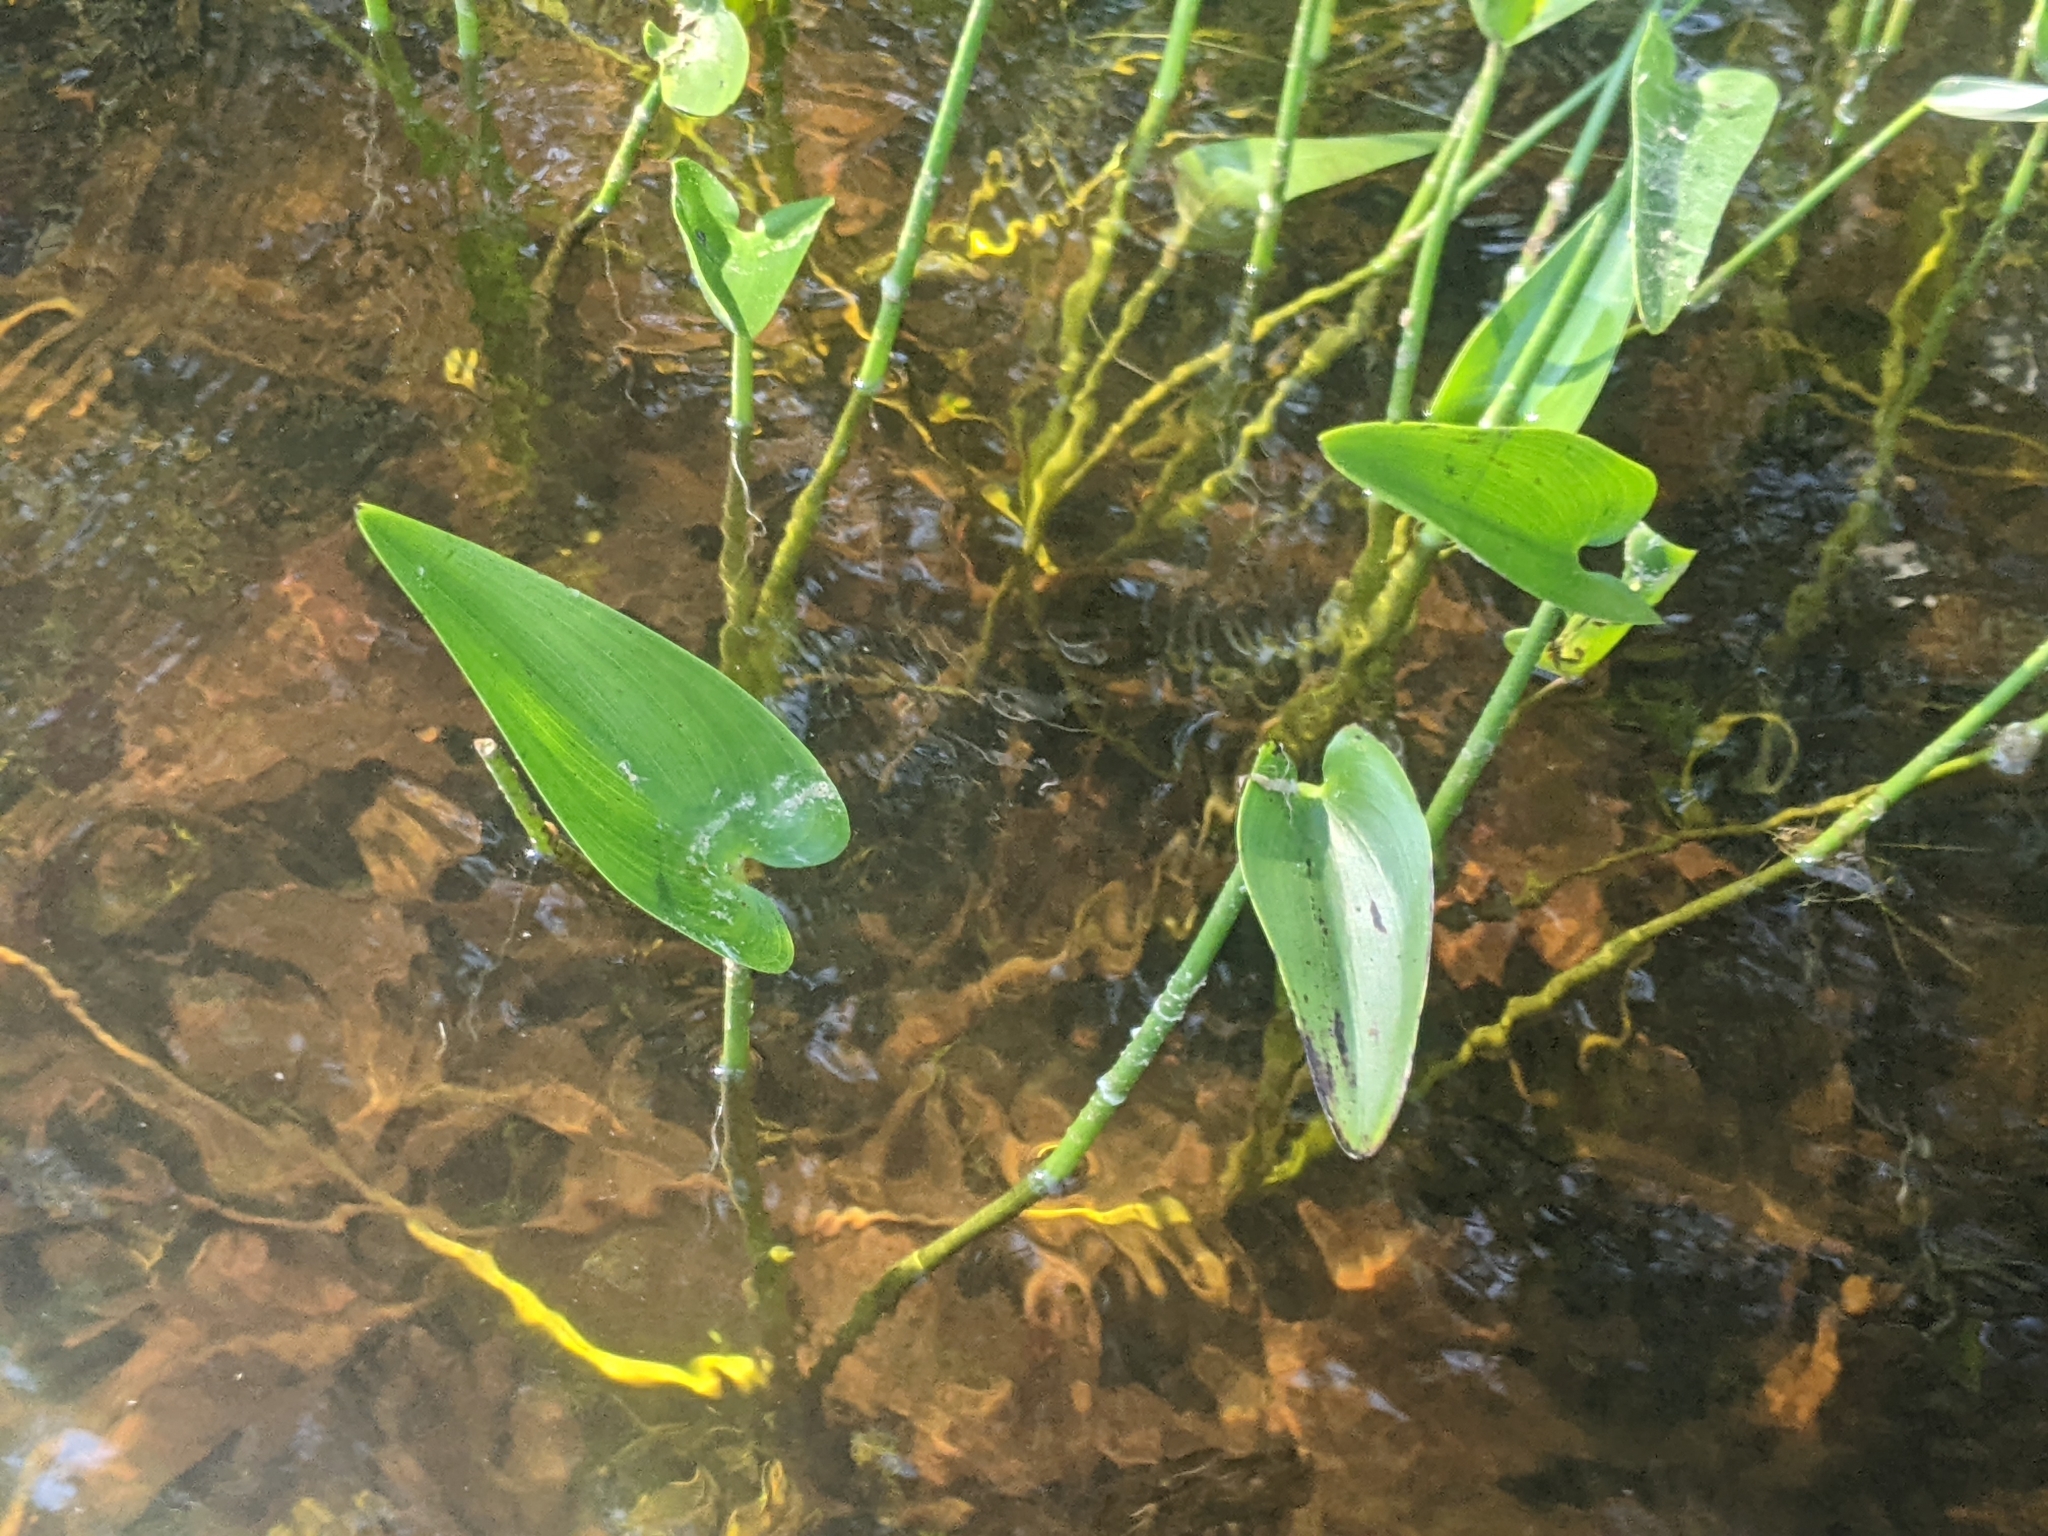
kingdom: Plantae
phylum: Tracheophyta
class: Liliopsida
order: Commelinales
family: Pontederiaceae
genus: Pontederia
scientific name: Pontederia cordata
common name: Pickerelweed
